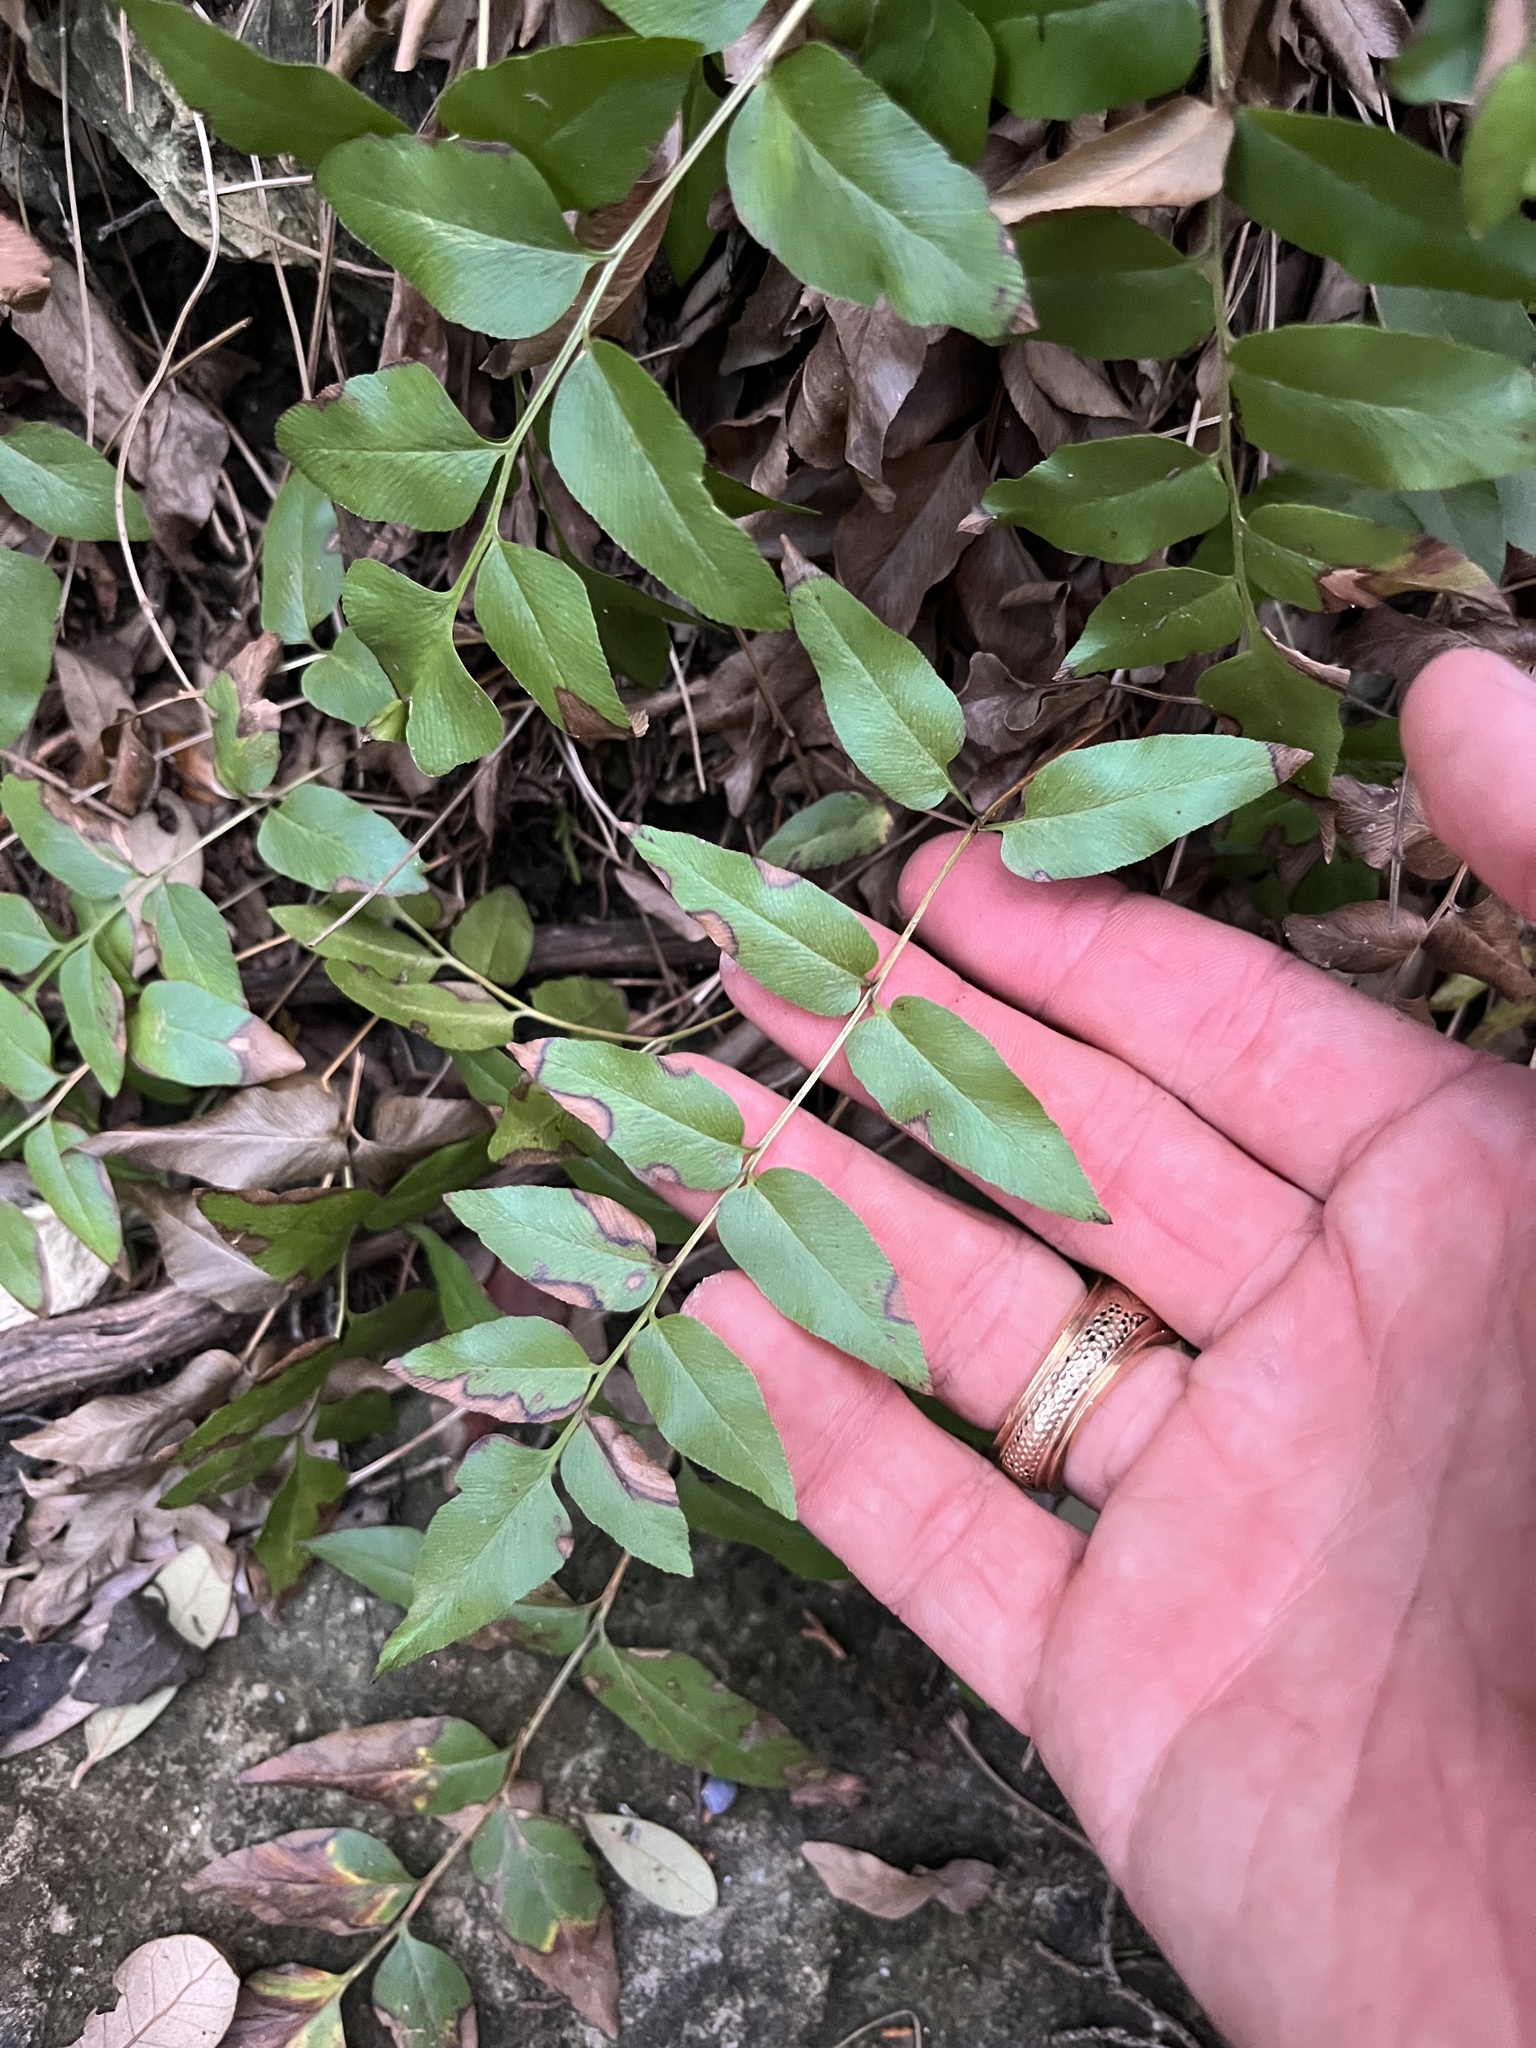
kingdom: Plantae
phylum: Tracheophyta
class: Polypodiopsida
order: Schizaeales
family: Anemiaceae
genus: Anemia
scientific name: Anemia mexicana
